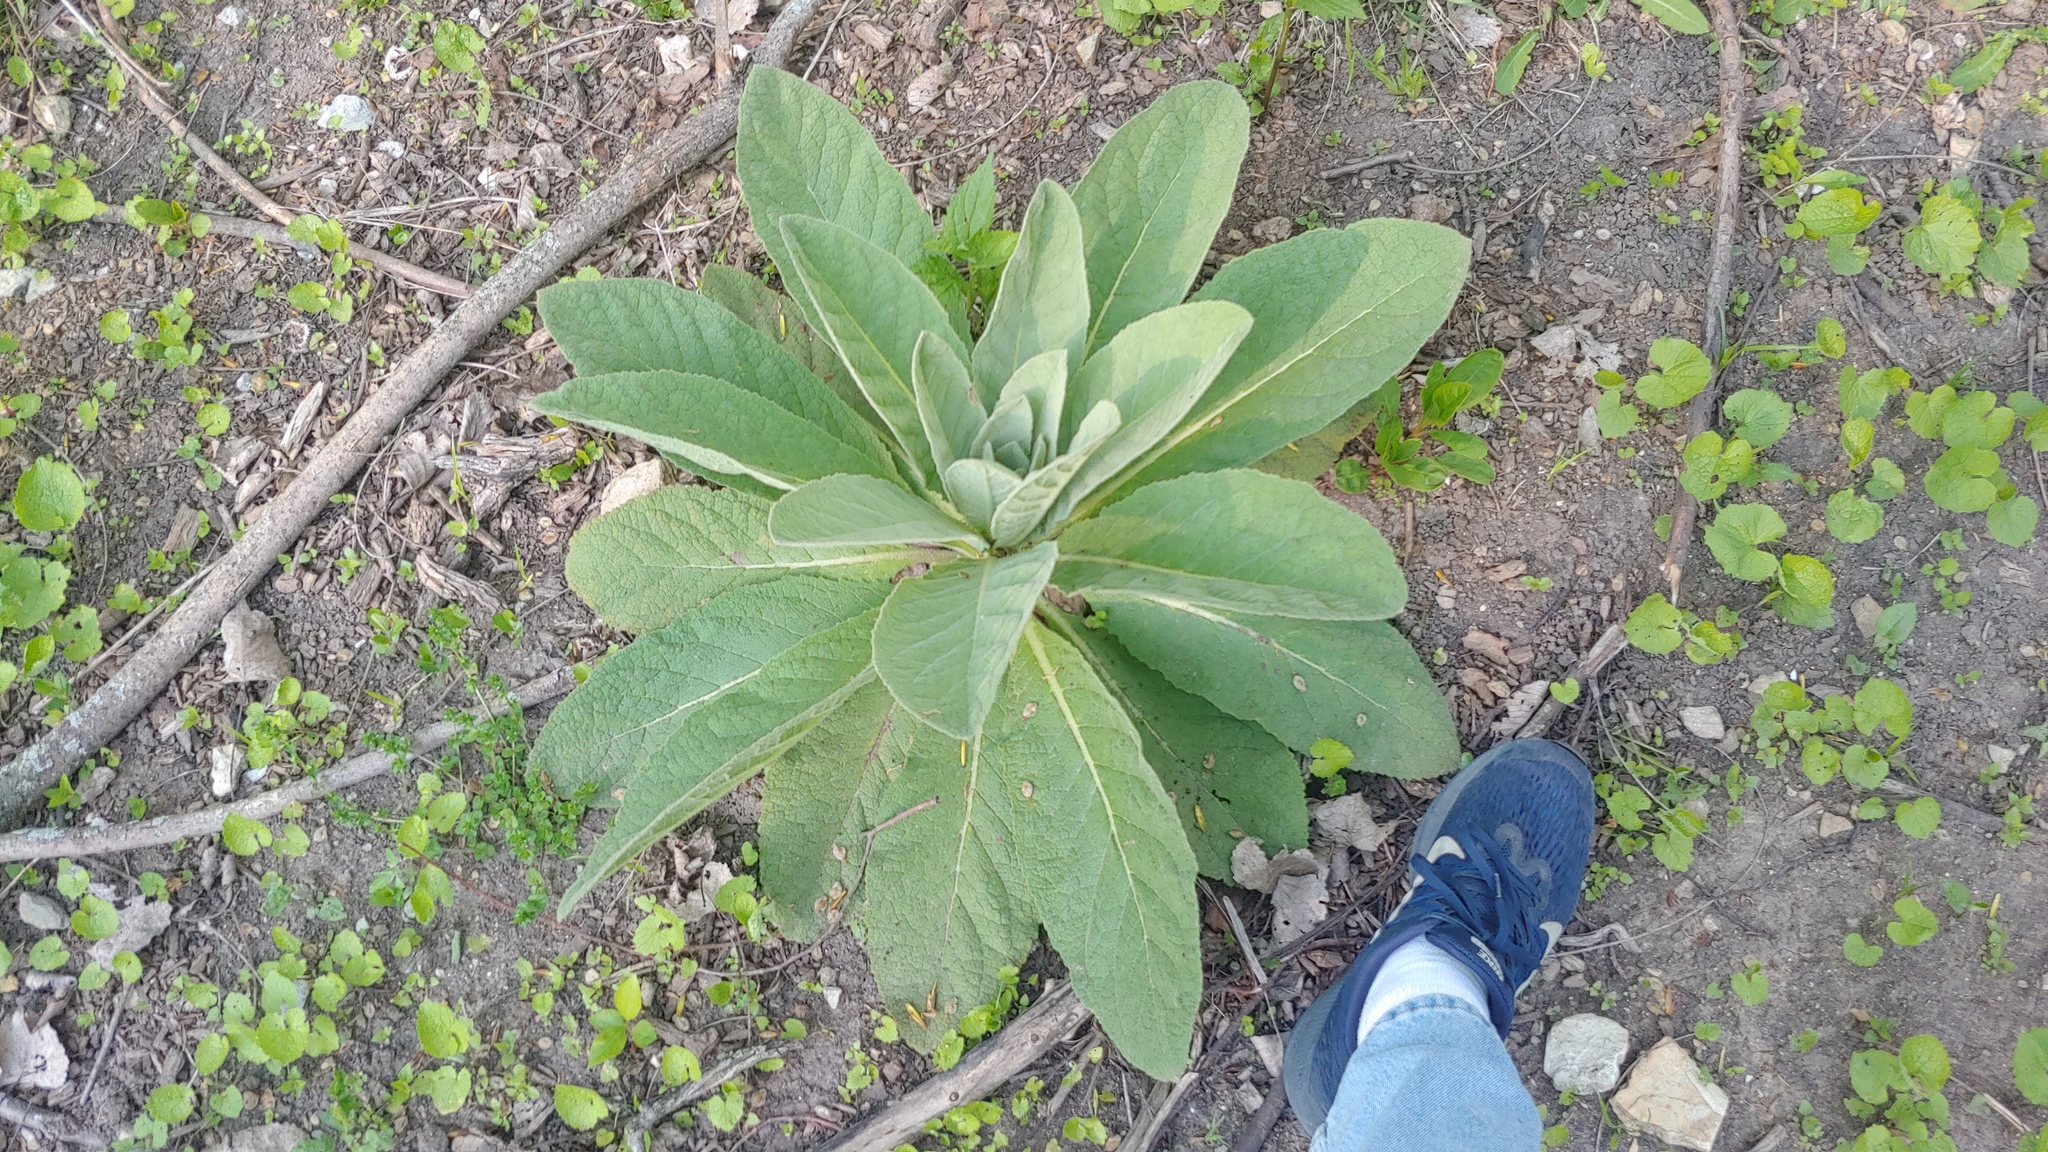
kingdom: Plantae
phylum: Tracheophyta
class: Magnoliopsida
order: Lamiales
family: Scrophulariaceae
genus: Verbascum
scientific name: Verbascum thapsus
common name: Common mullein
